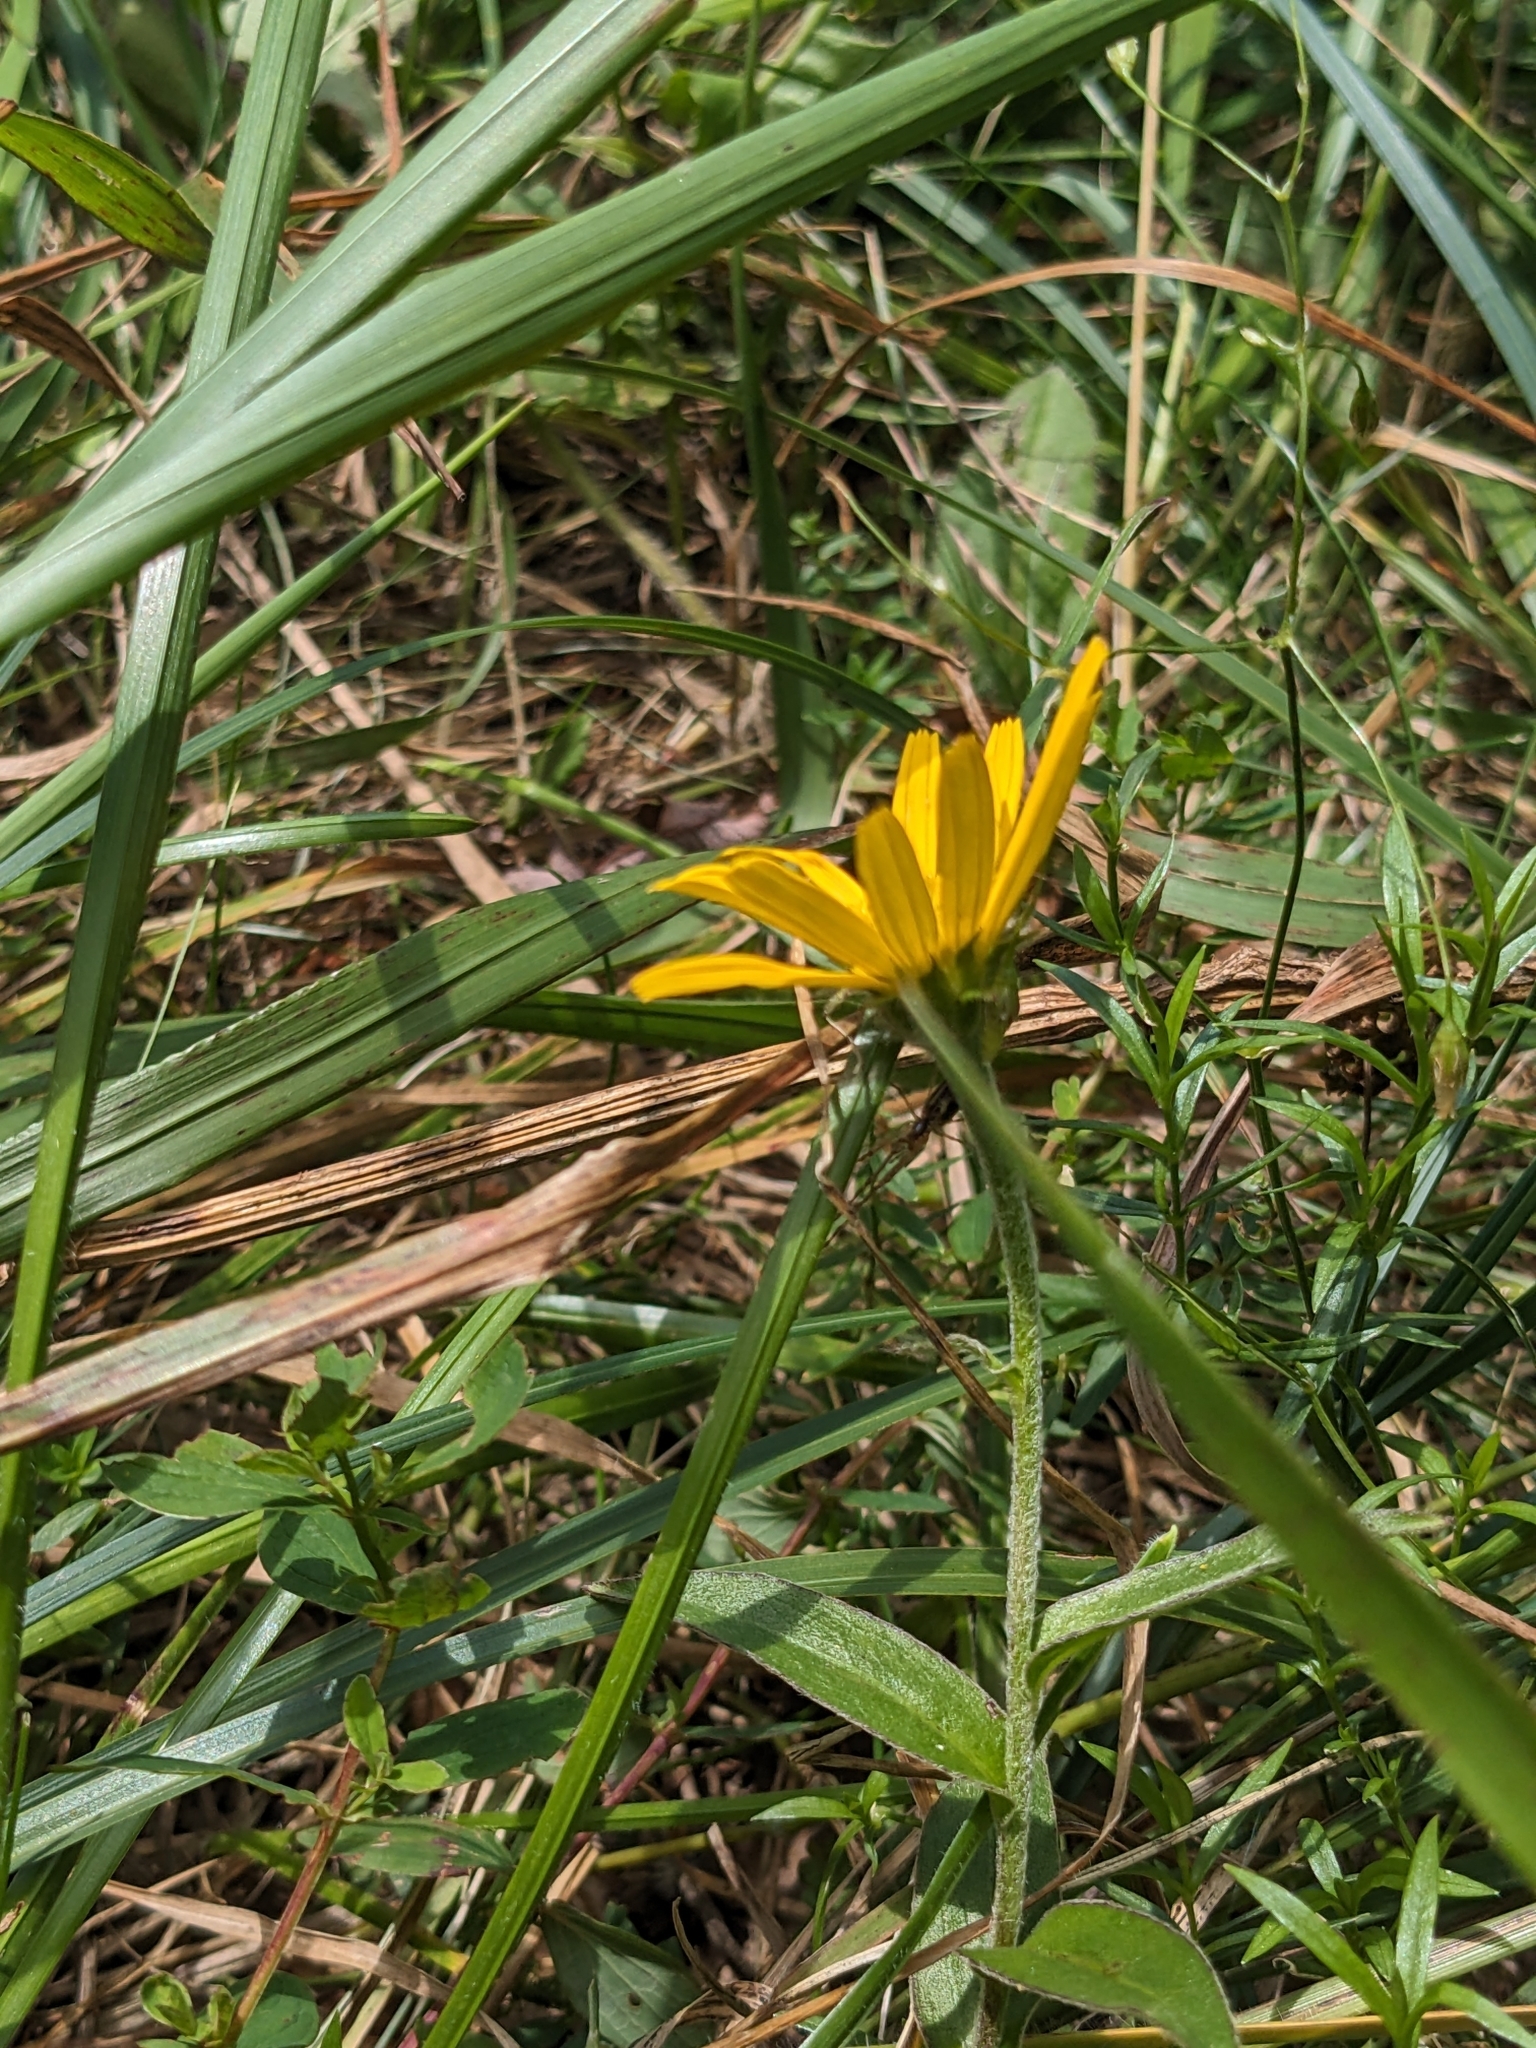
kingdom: Plantae
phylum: Tracheophyta
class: Magnoliopsida
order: Asterales
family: Asteraceae
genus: Buphthalmum
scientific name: Buphthalmum salicifolium
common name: Willow-leaved yellow-oxeye
